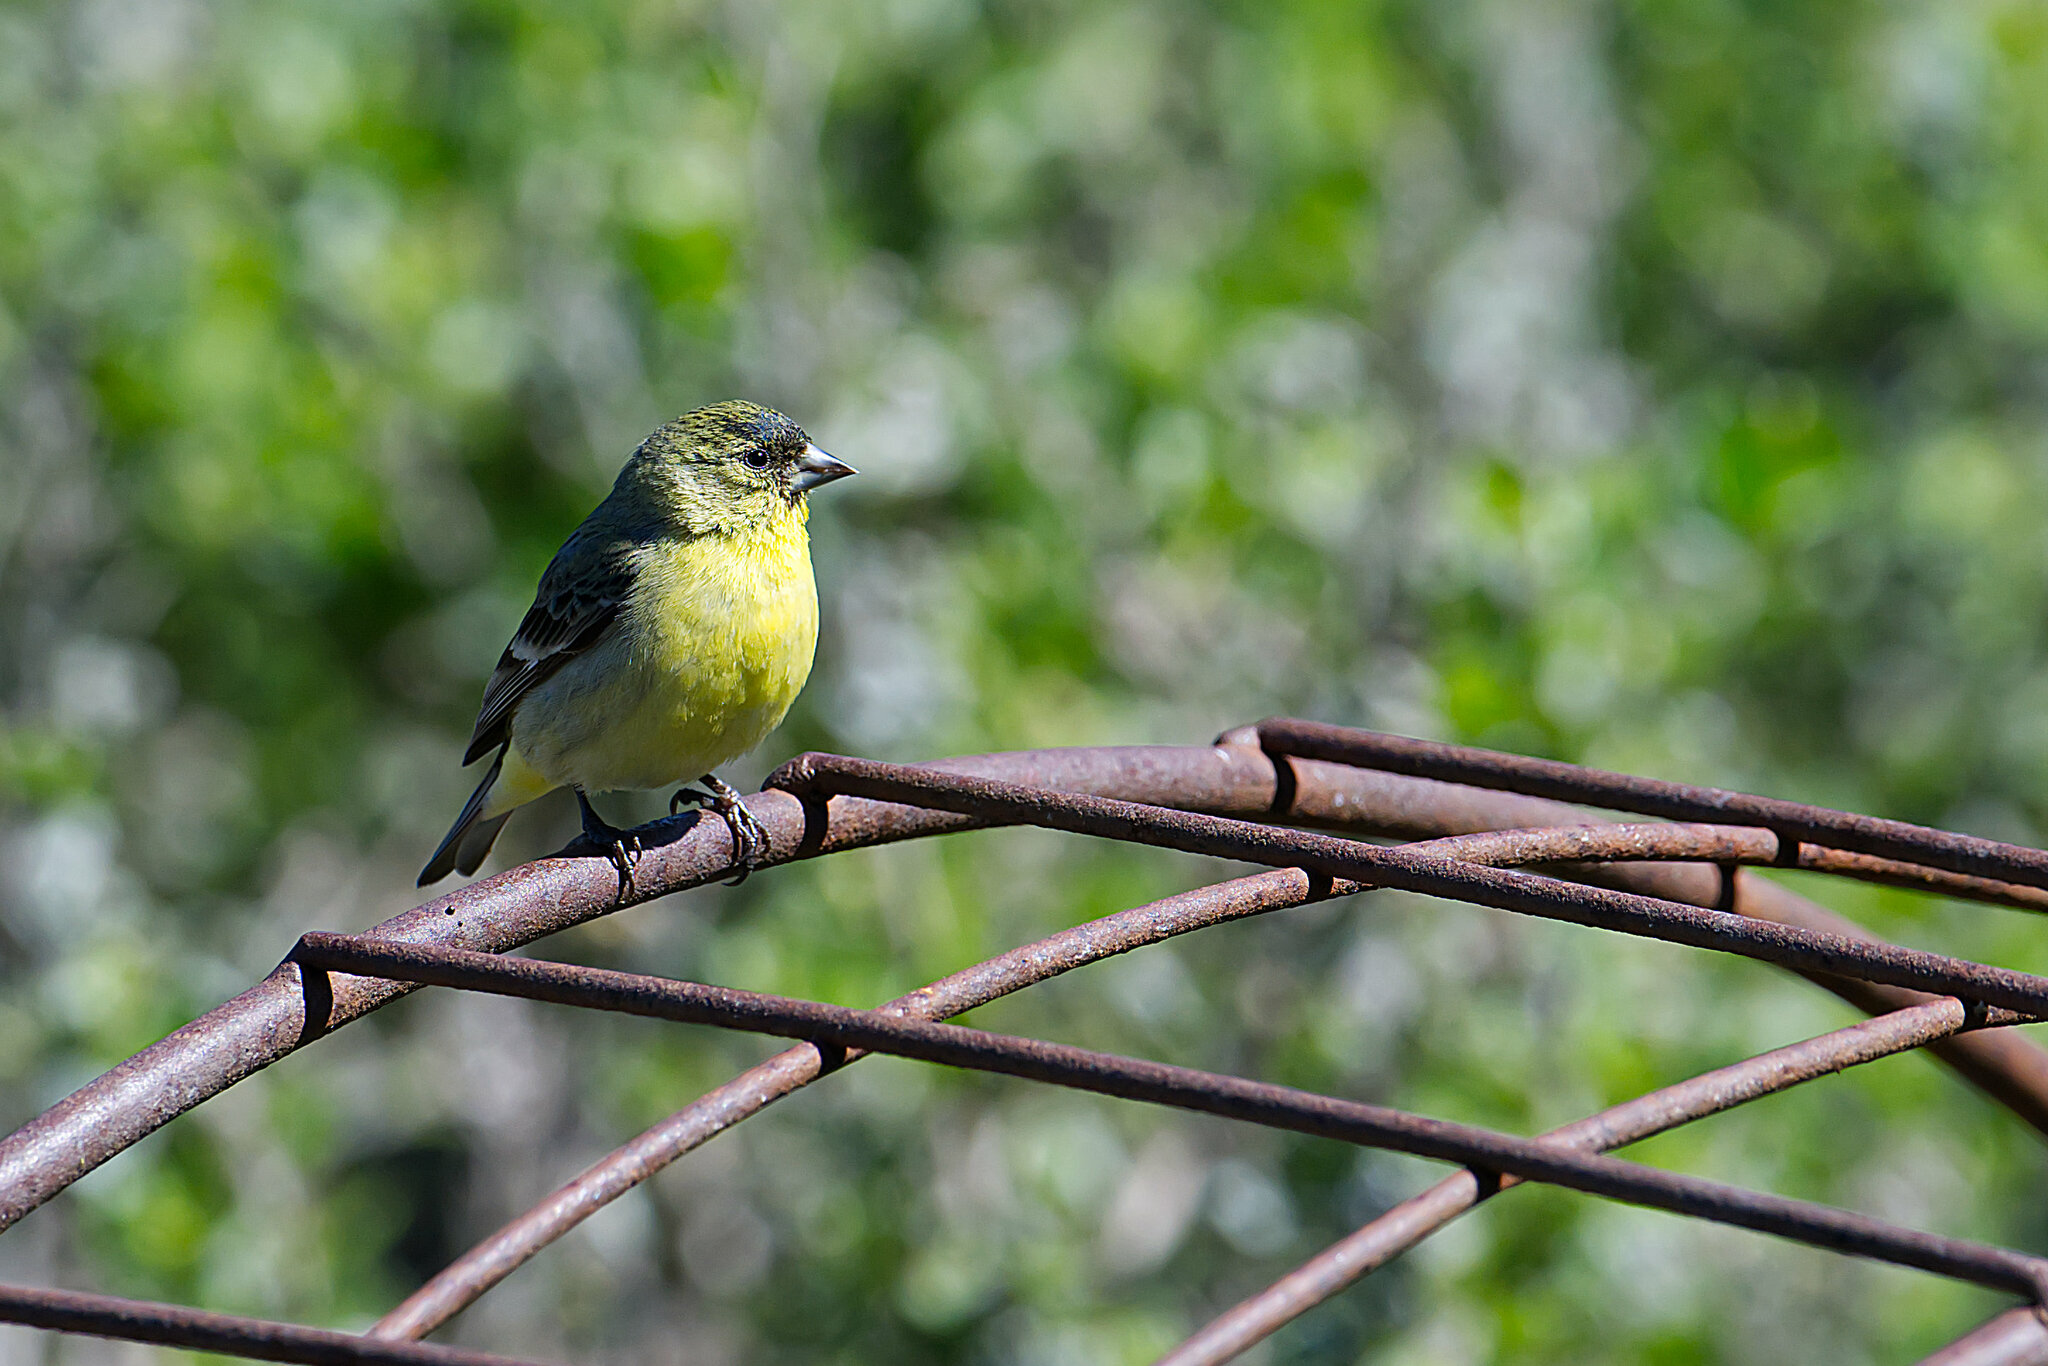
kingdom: Animalia
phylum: Chordata
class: Aves
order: Passeriformes
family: Fringillidae
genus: Spinus
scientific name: Spinus psaltria
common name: Lesser goldfinch
